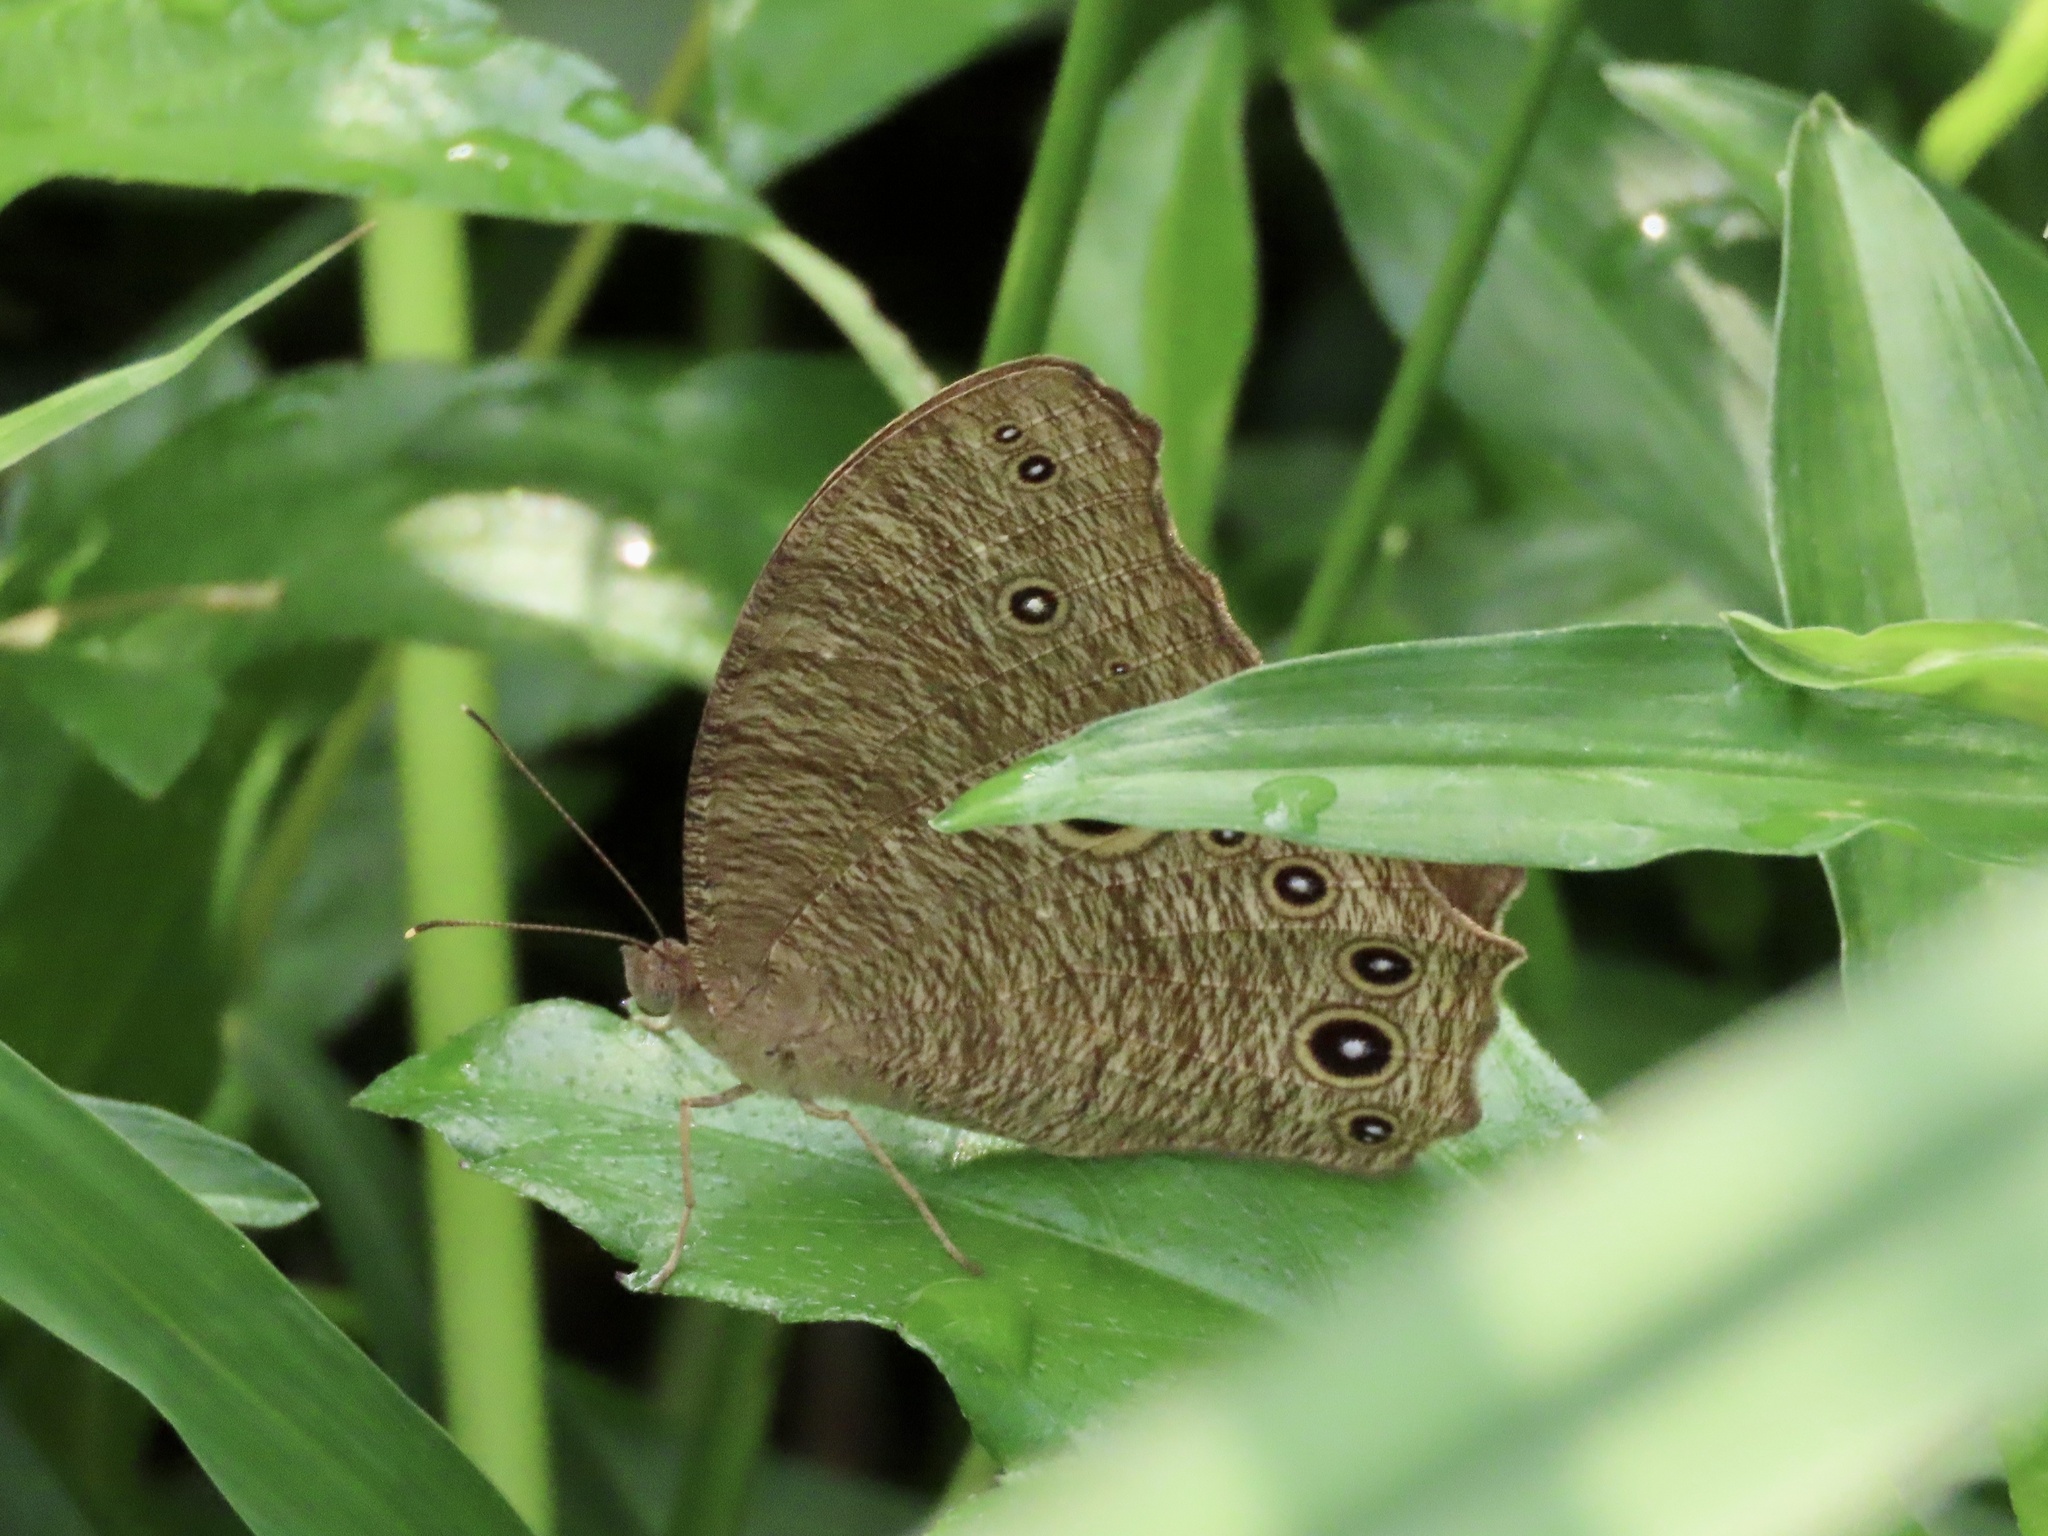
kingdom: Animalia
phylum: Arthropoda
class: Insecta
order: Lepidoptera
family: Nymphalidae
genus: Melanitis
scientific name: Melanitis leda
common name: Twilight brown
